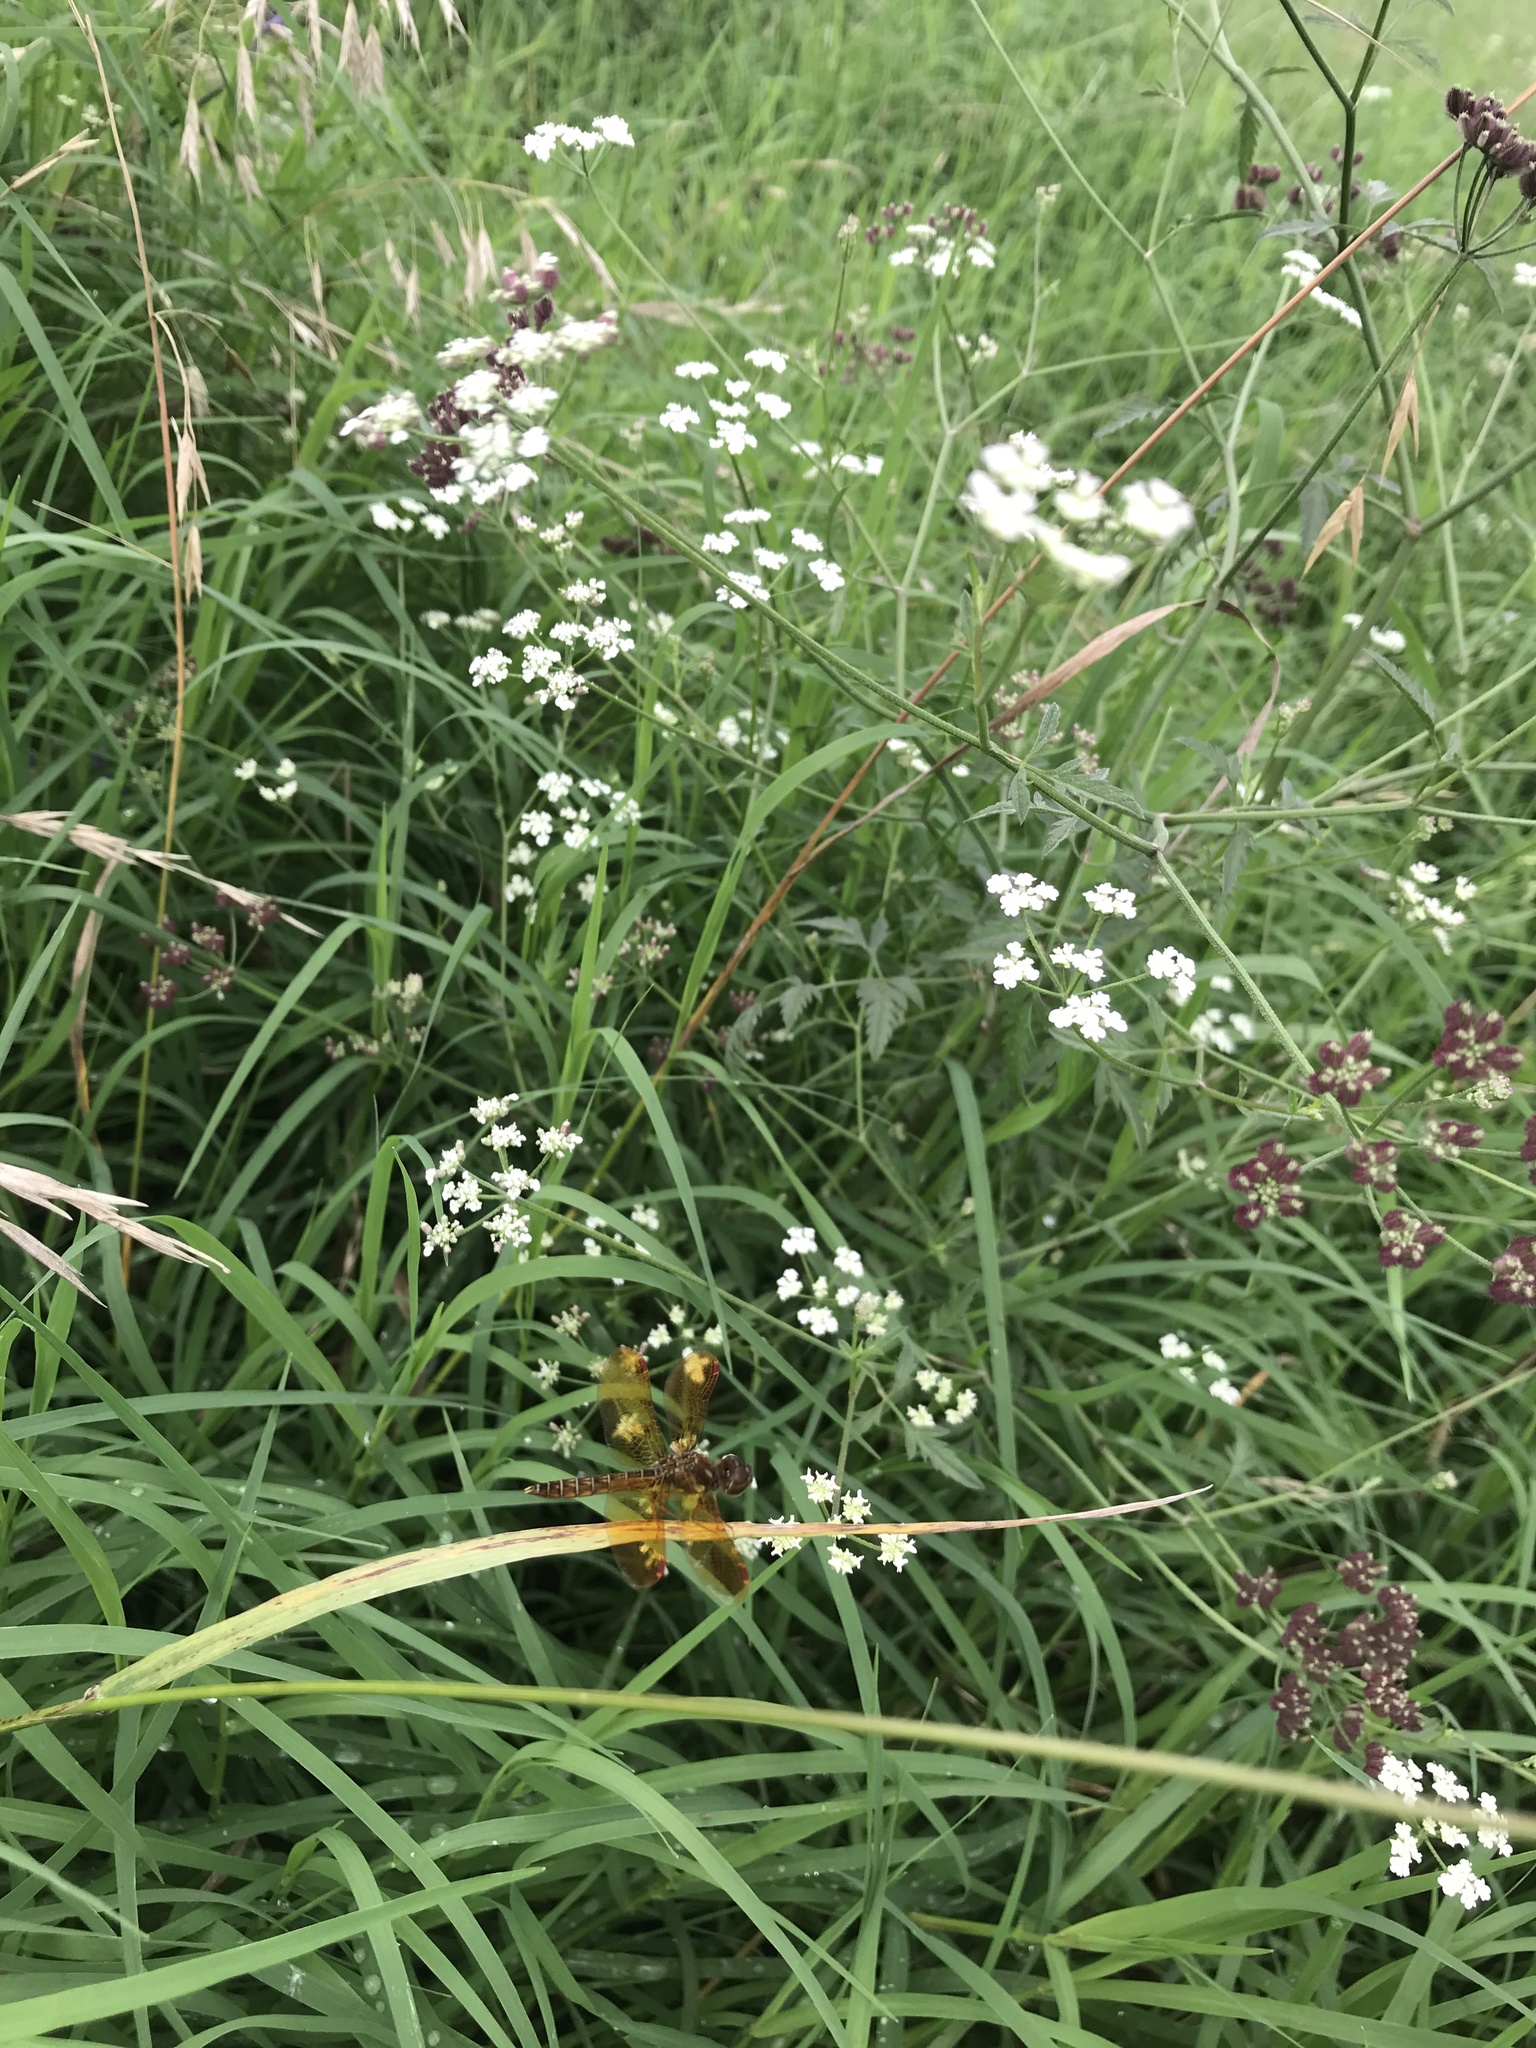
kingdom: Animalia
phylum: Arthropoda
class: Insecta
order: Odonata
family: Libellulidae
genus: Perithemis
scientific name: Perithemis tenera
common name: Eastern amberwing
